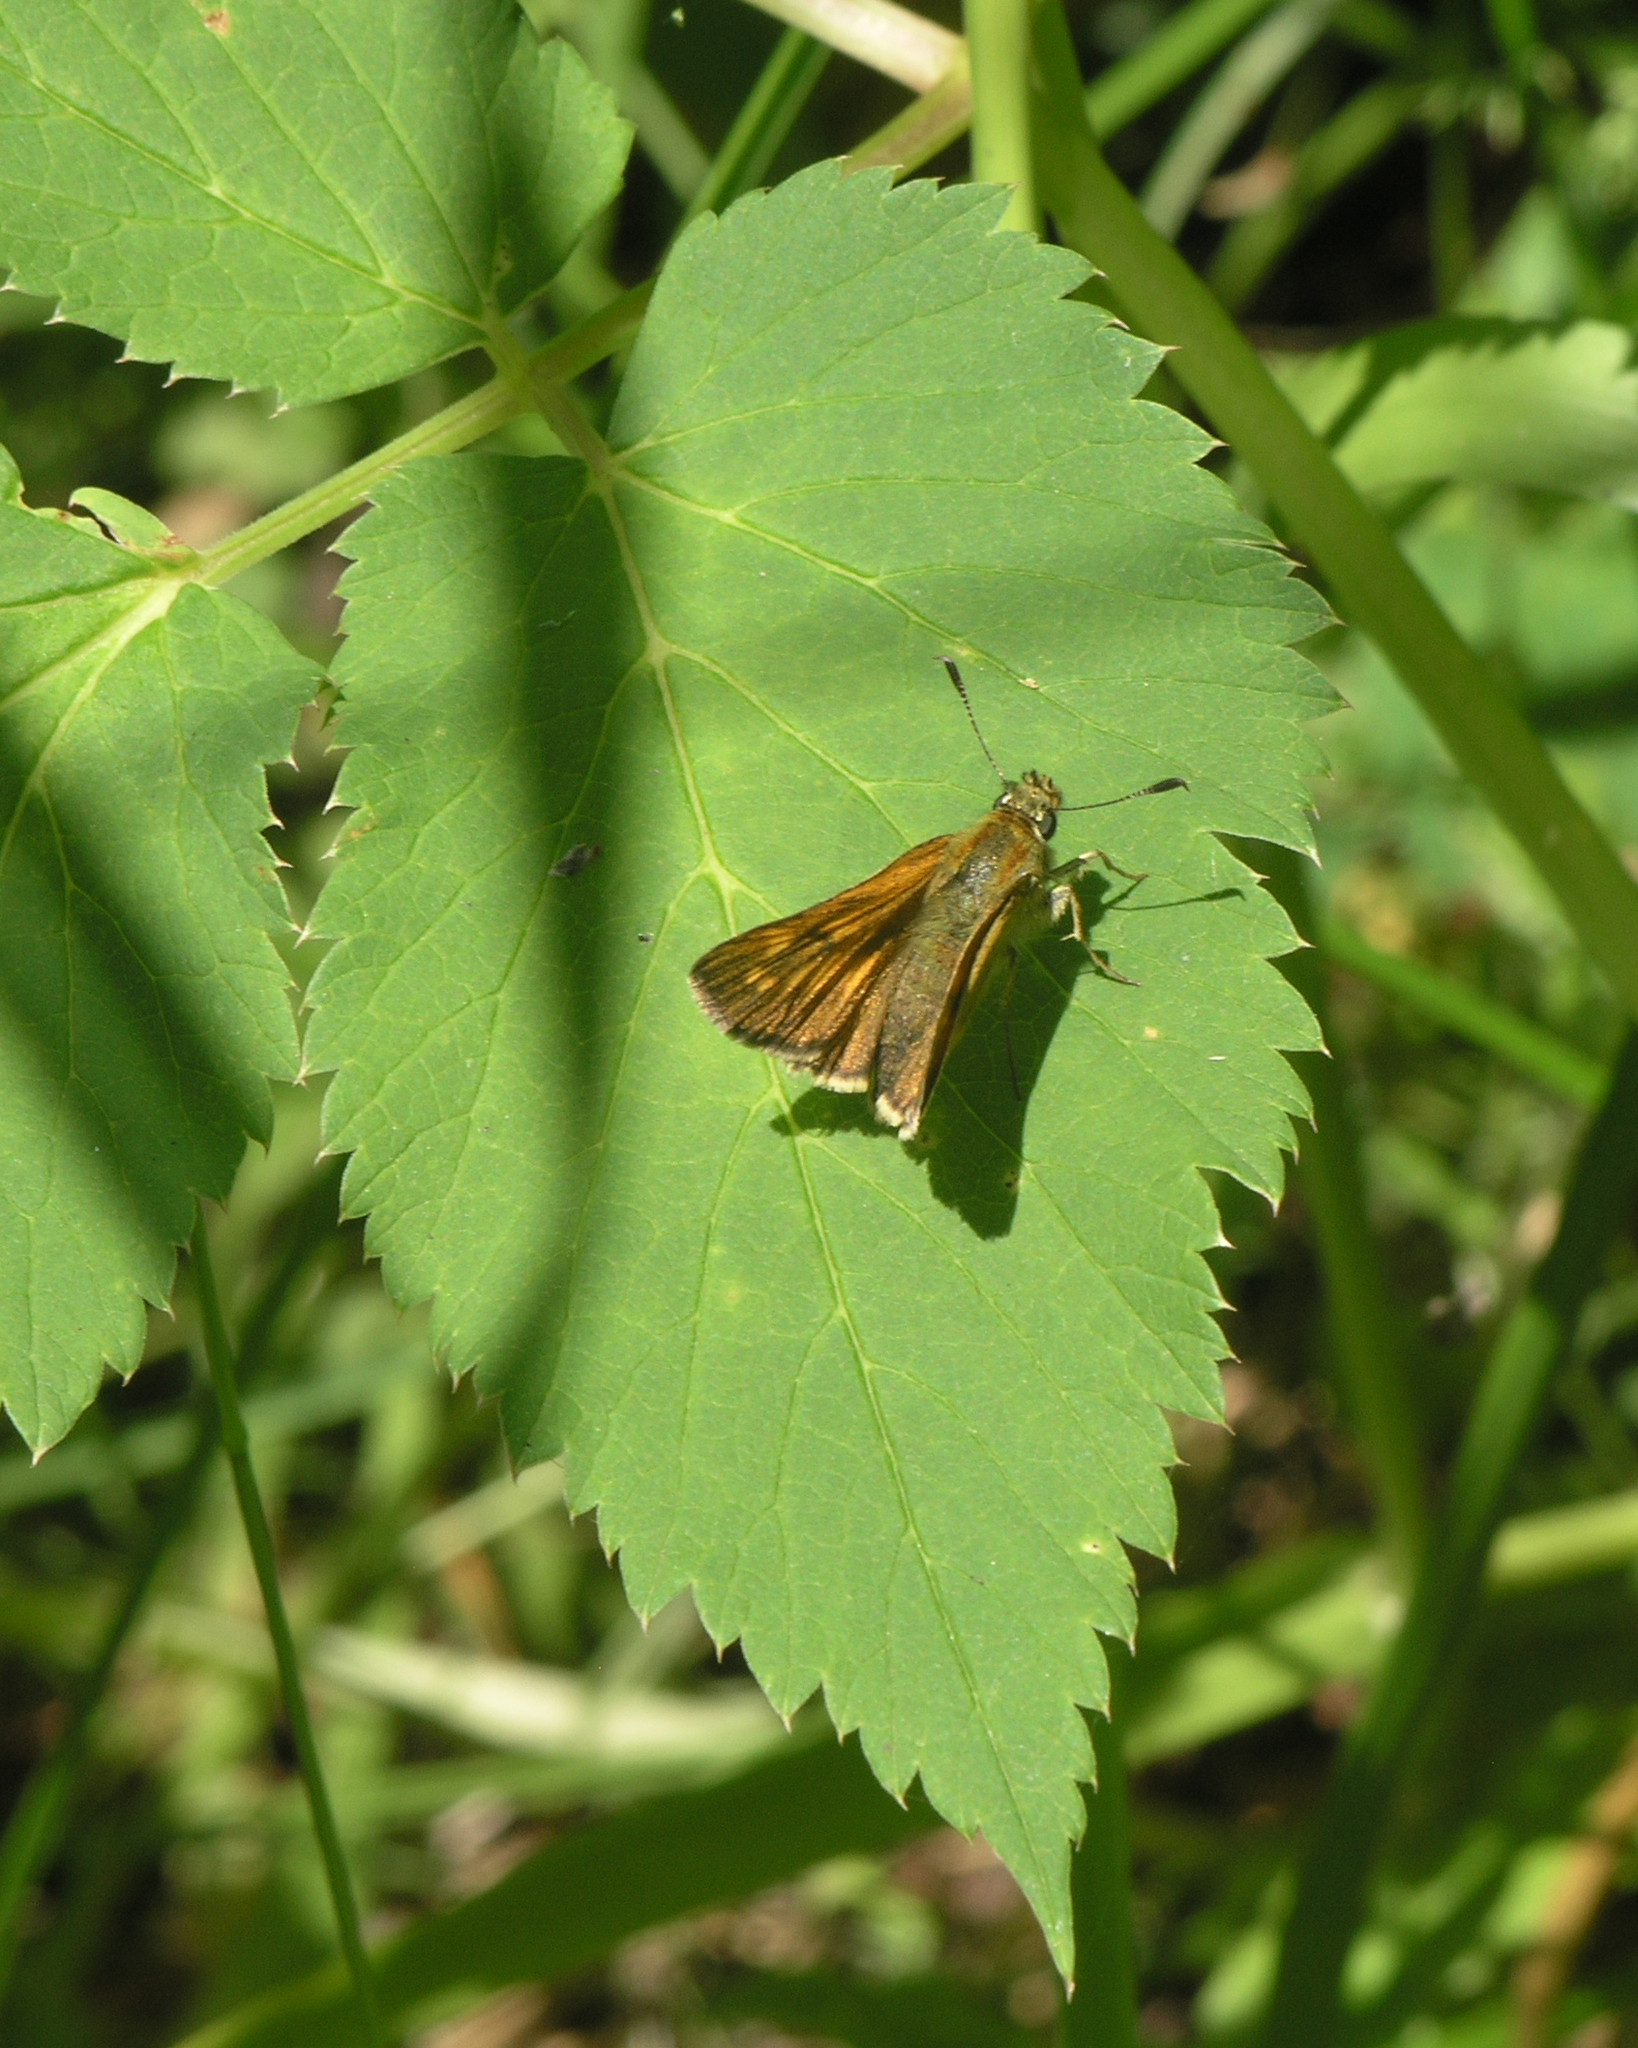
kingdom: Animalia
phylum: Arthropoda
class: Insecta
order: Lepidoptera
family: Hesperiidae
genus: Ochlodes
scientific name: Ochlodes venata
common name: Large skipper
